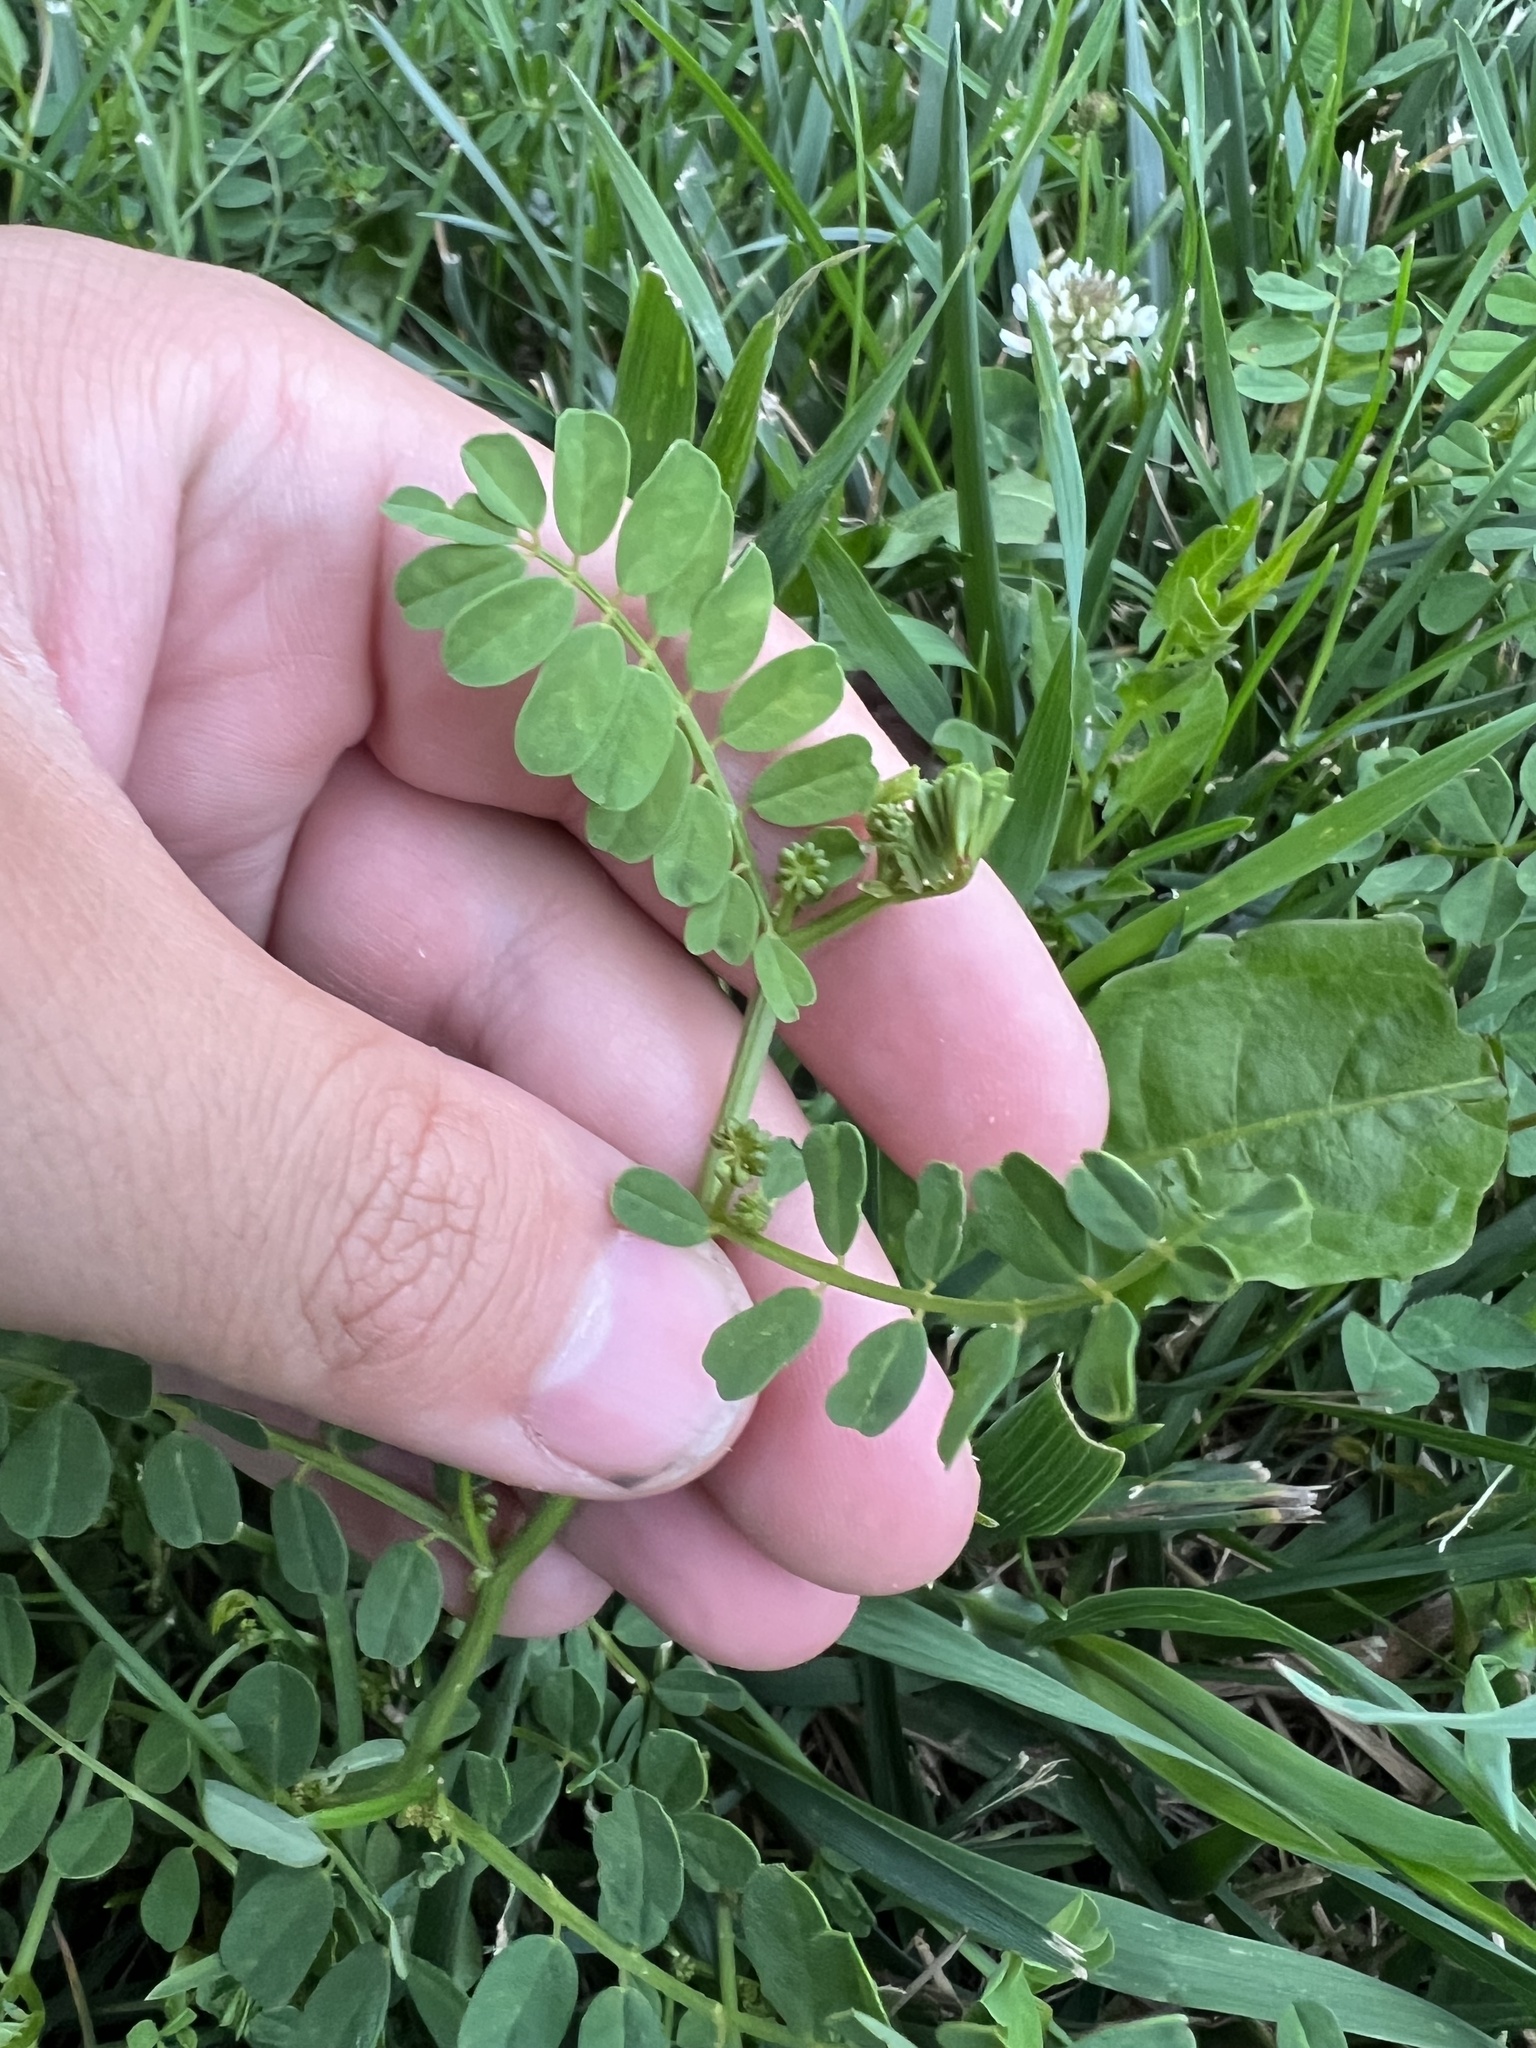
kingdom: Plantae
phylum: Tracheophyta
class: Magnoliopsida
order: Fabales
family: Fabaceae
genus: Coronilla
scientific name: Coronilla varia
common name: Crownvetch
